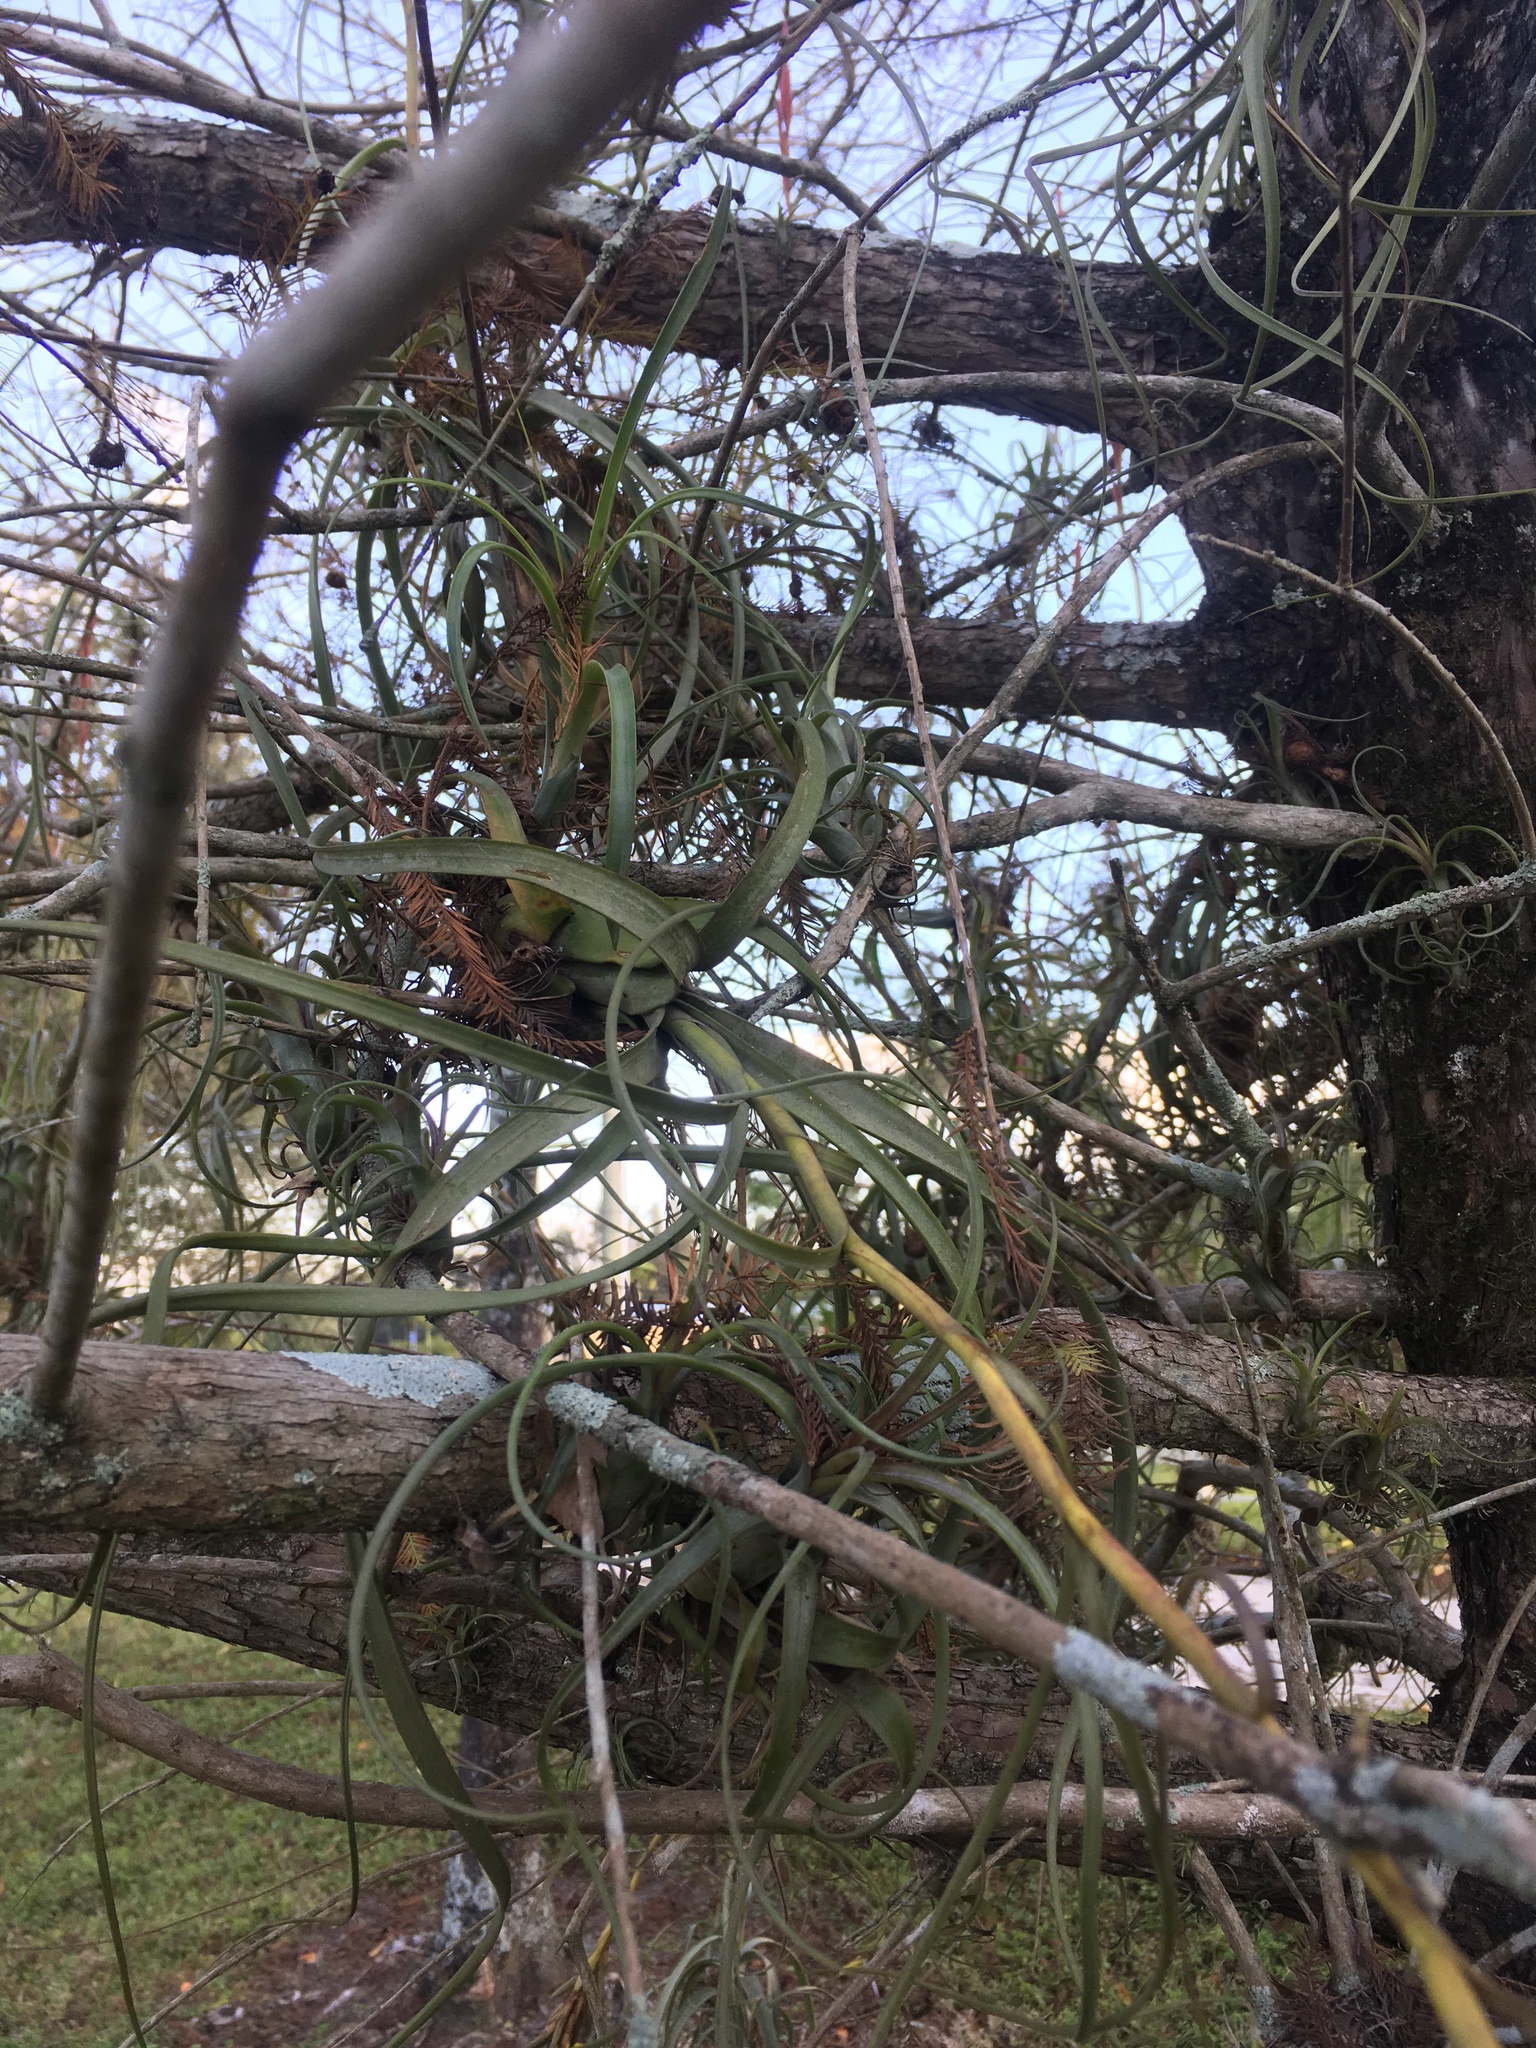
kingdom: Plantae
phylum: Tracheophyta
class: Liliopsida
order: Poales
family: Bromeliaceae
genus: Tillandsia
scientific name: Tillandsia balbisiana
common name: Northern needleleaf
